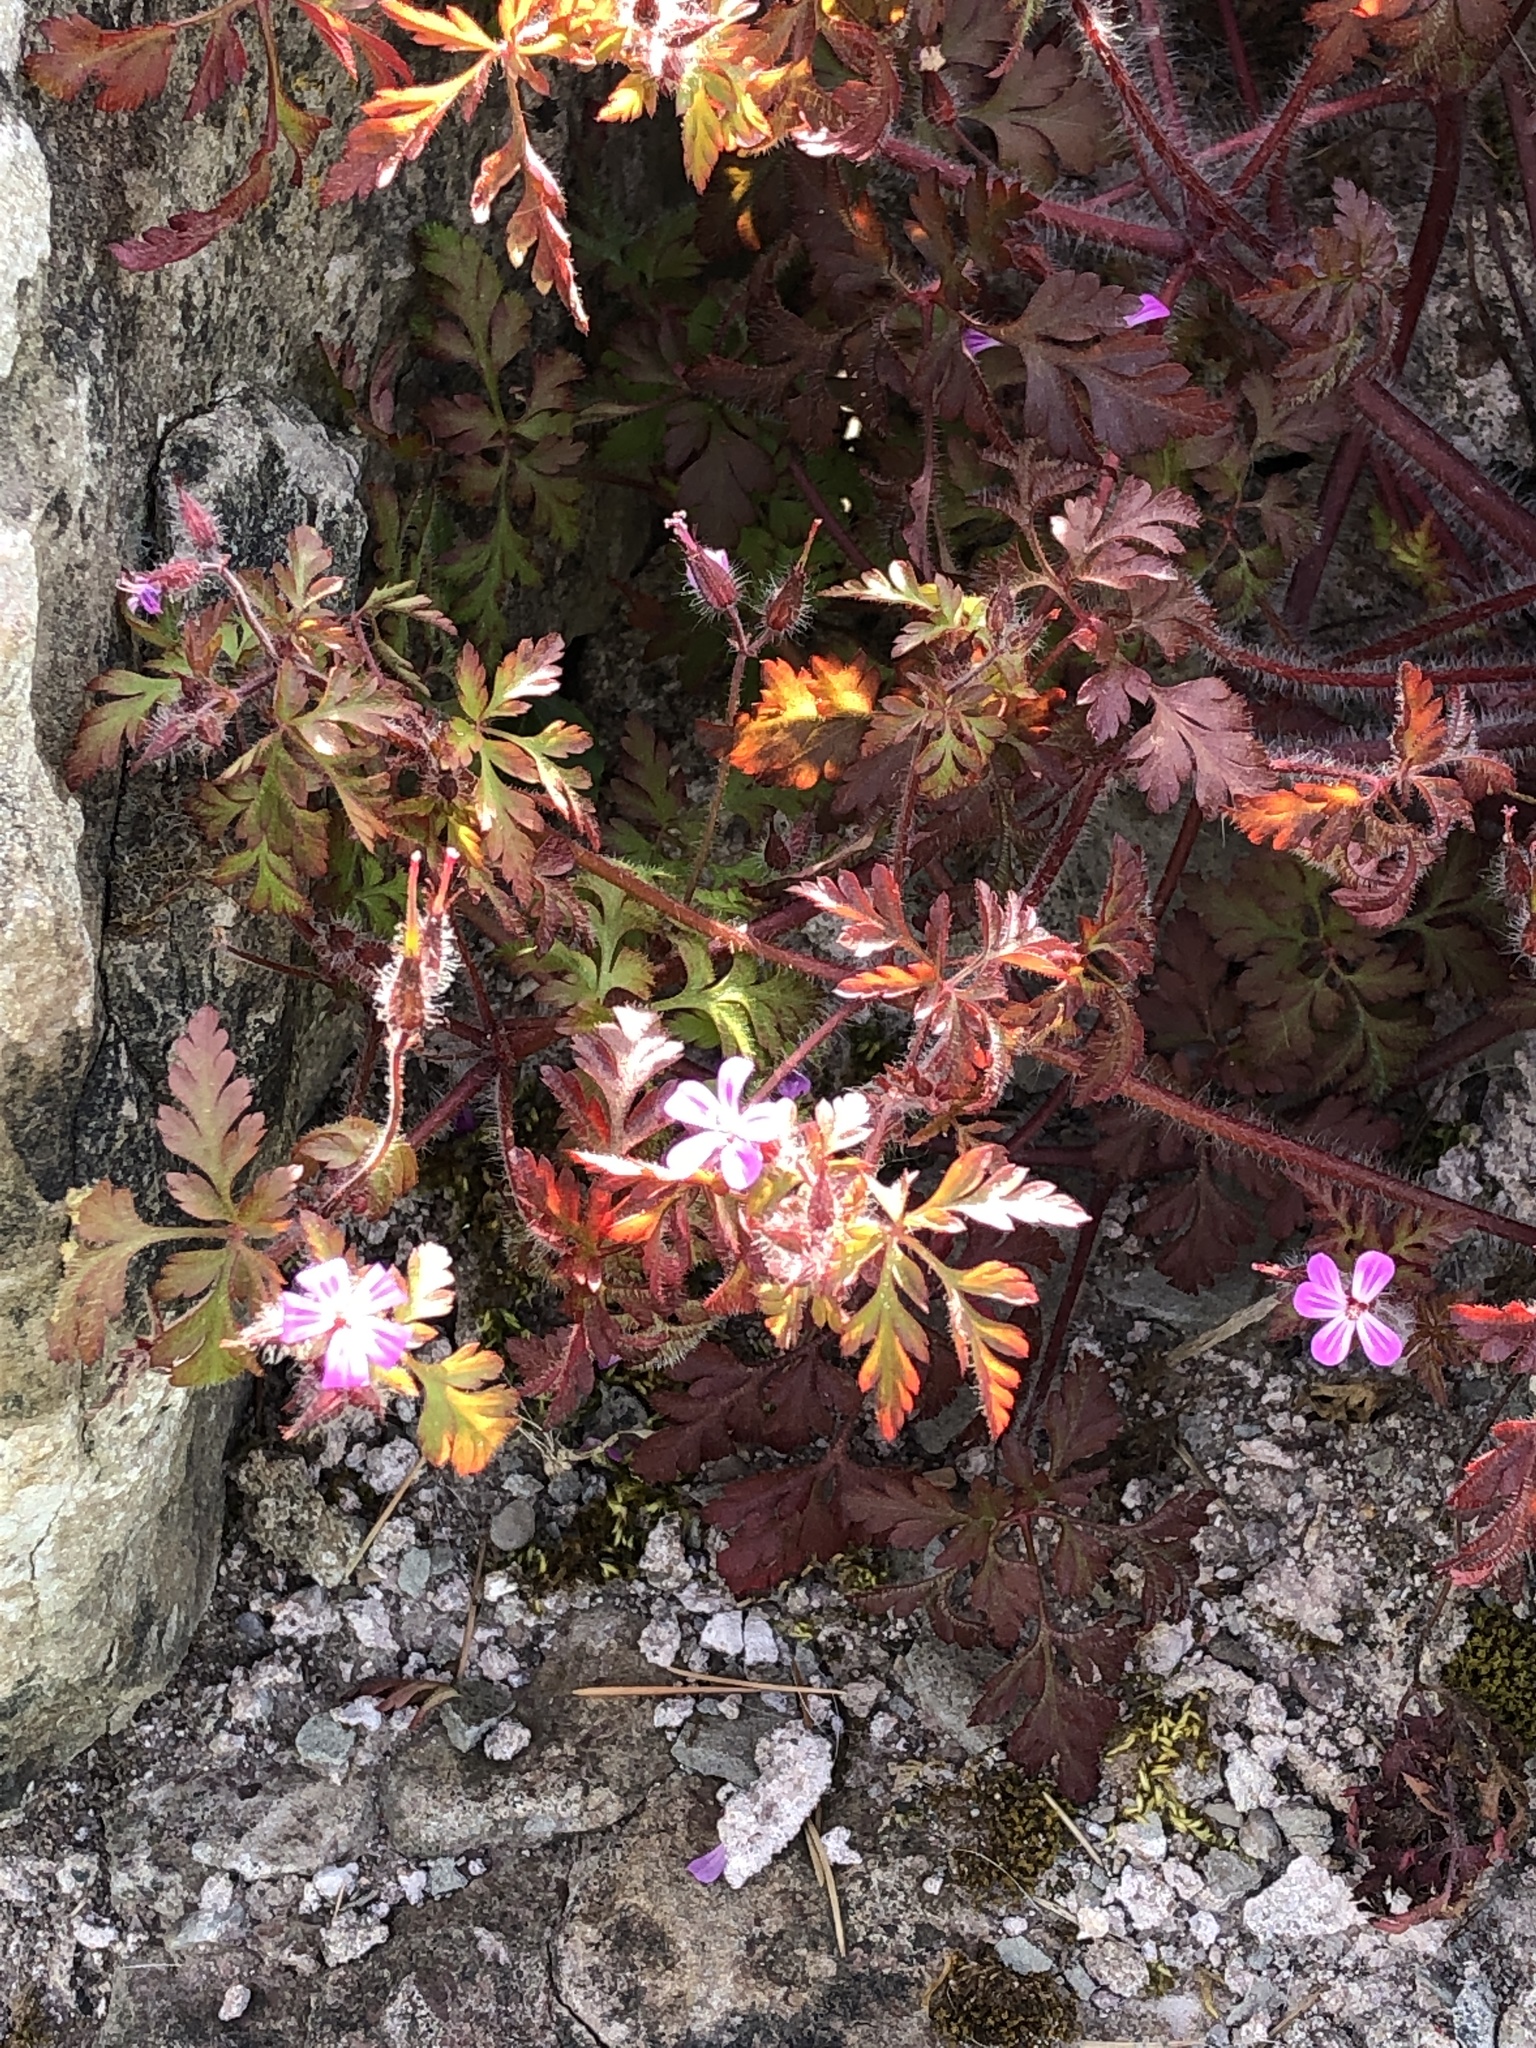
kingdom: Plantae
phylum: Tracheophyta
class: Magnoliopsida
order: Geraniales
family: Geraniaceae
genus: Geranium
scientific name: Geranium robertianum
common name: Herb-robert
